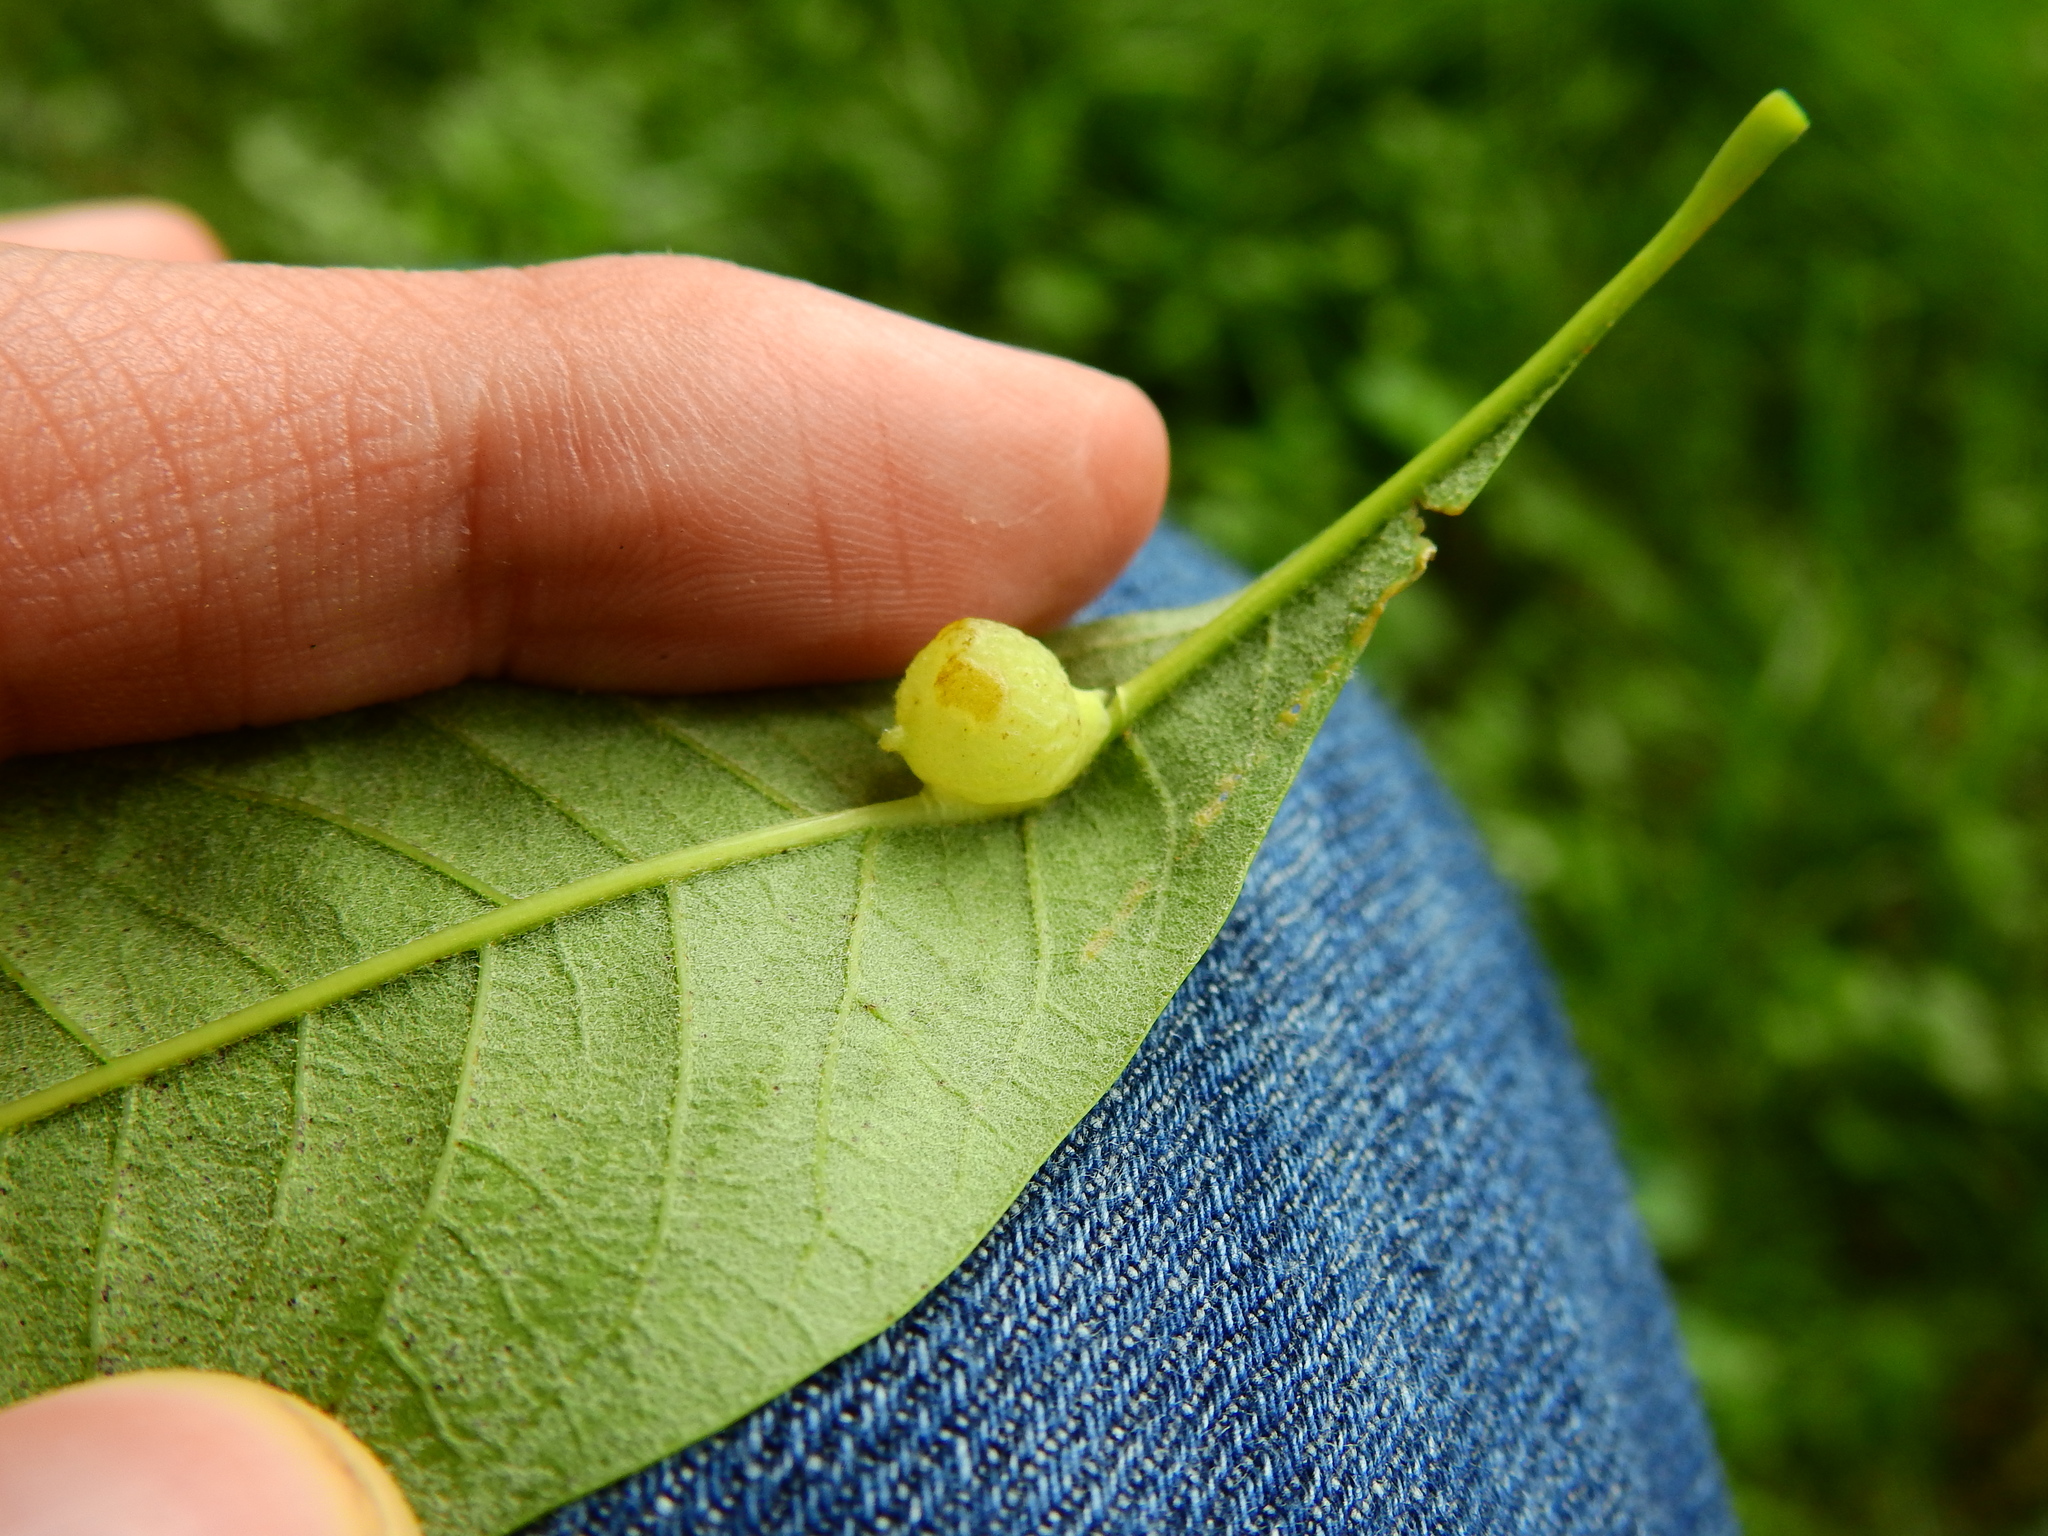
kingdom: Animalia
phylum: Arthropoda
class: Insecta
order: Hymenoptera
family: Cynipidae
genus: Callirhytis
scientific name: Callirhytis
